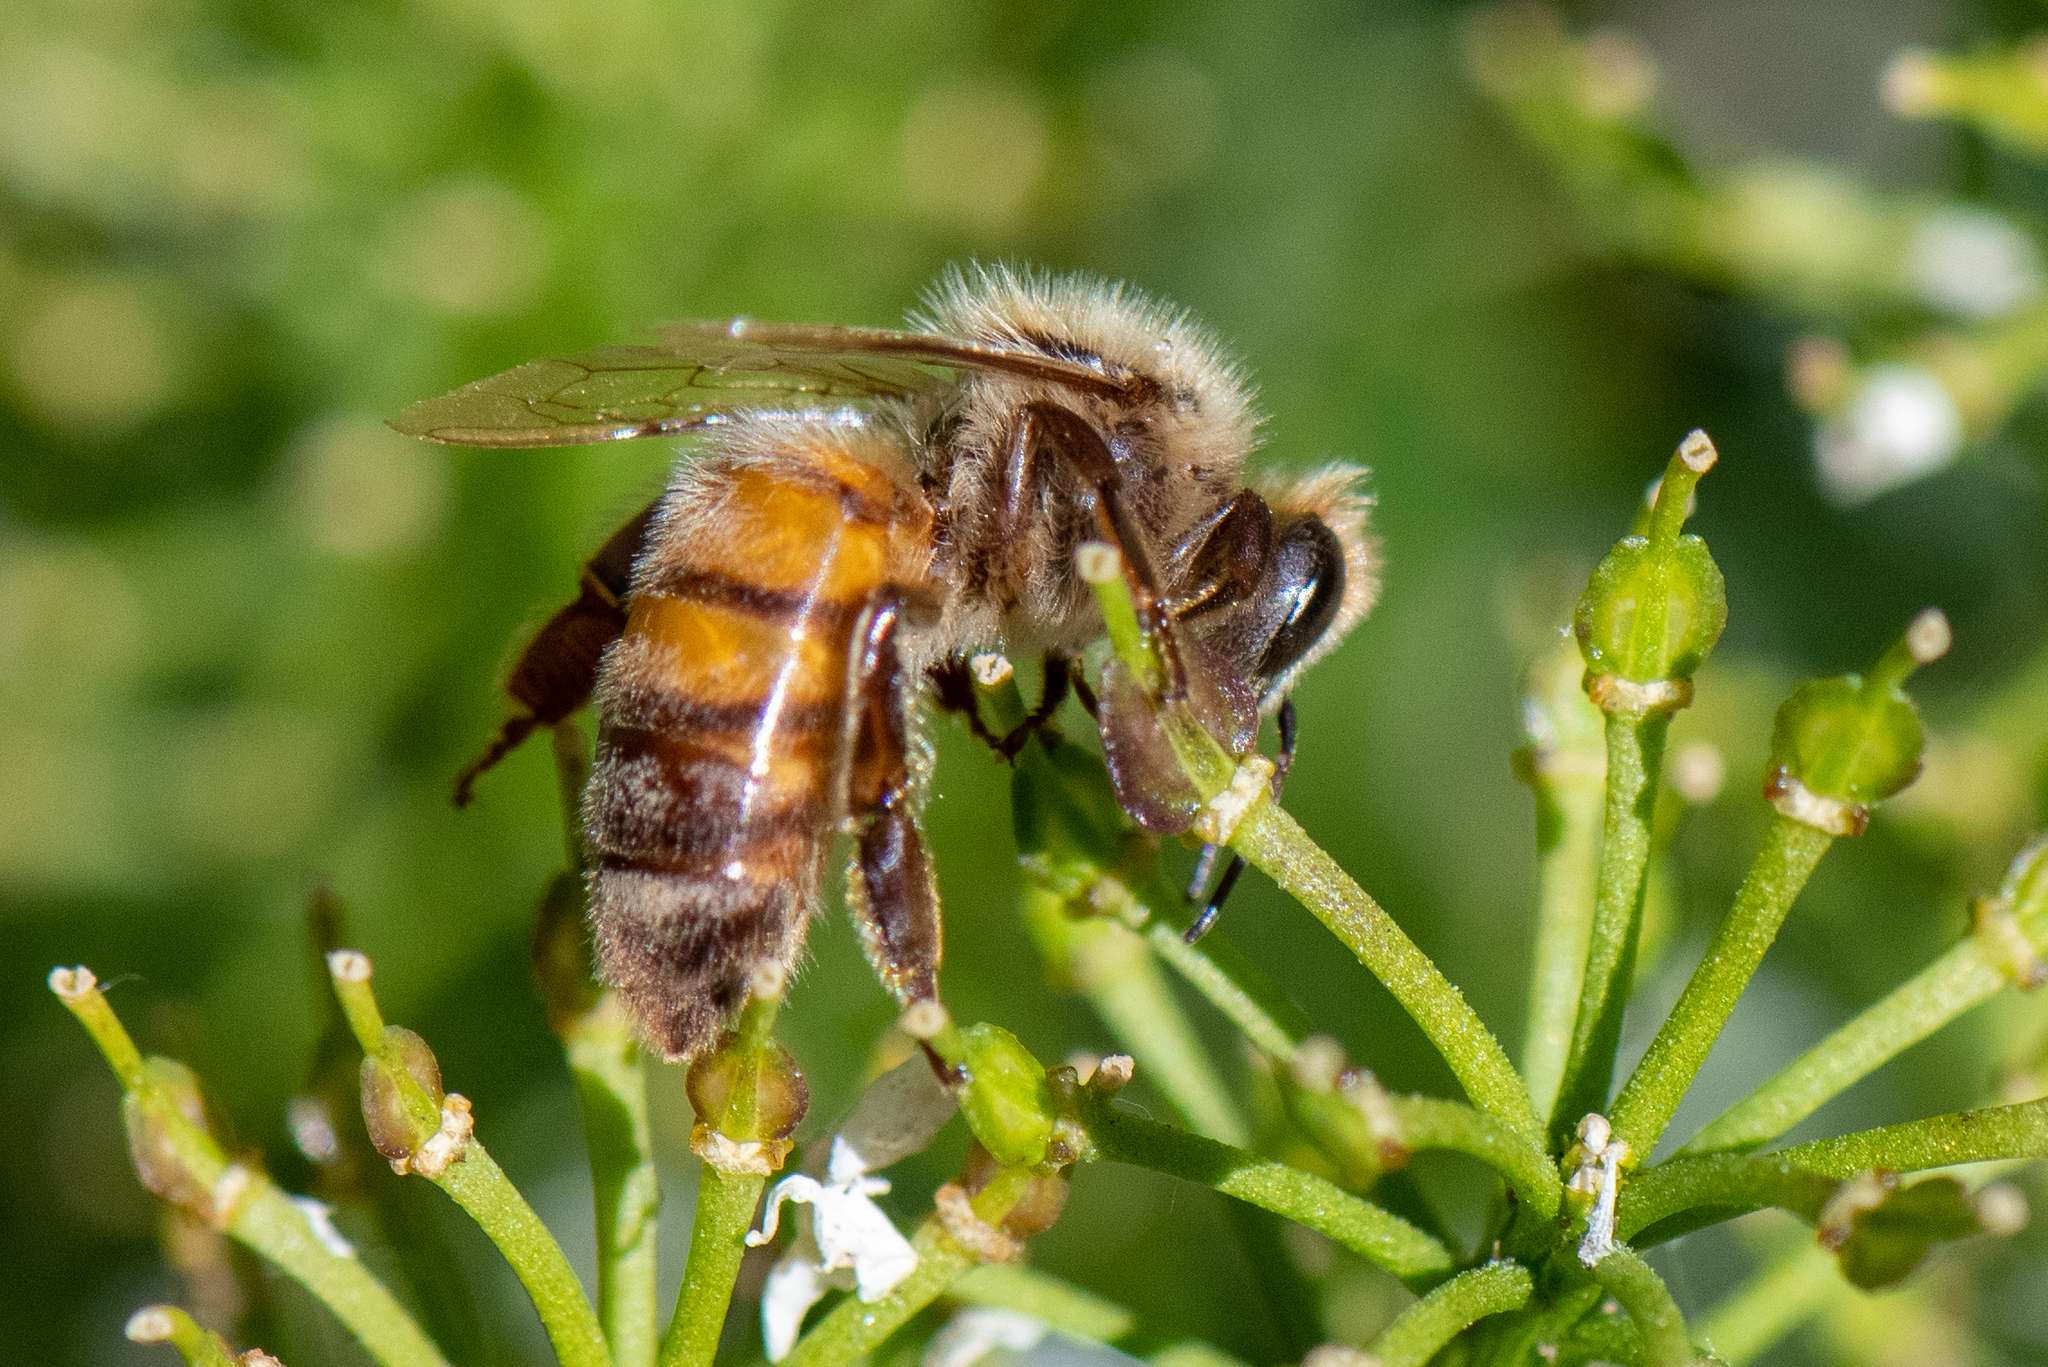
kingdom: Animalia
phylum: Arthropoda
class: Insecta
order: Hymenoptera
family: Apidae
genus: Apis
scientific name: Apis mellifera
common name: Honey bee
